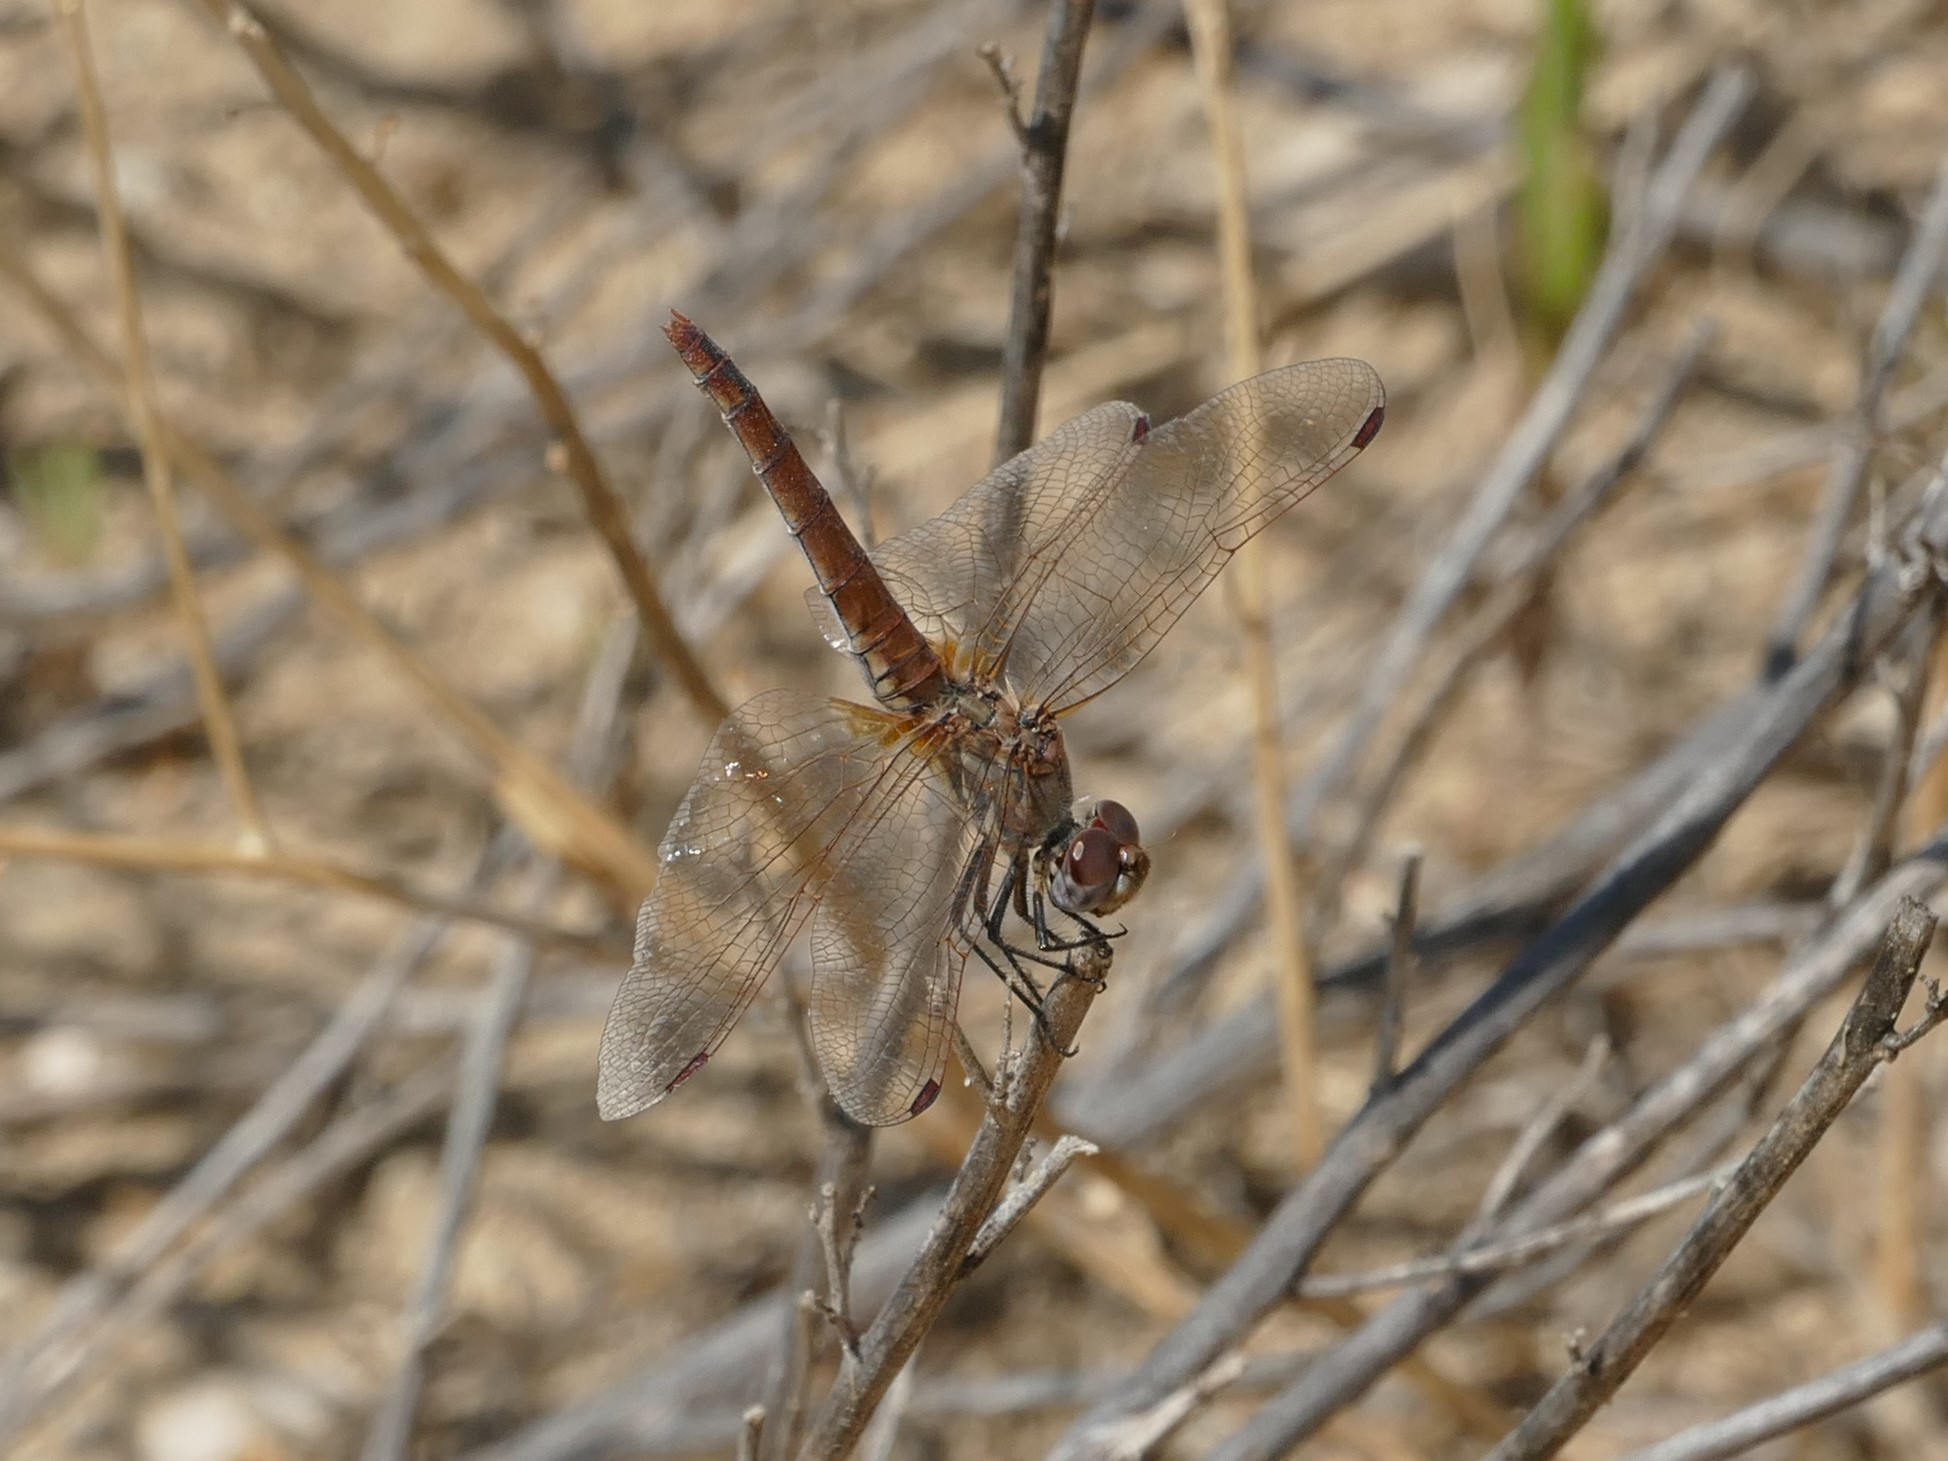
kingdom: Animalia
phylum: Arthropoda
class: Insecta
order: Odonata
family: Libellulidae
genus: Trithemis
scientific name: Trithemis annulata
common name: Violet dropwing
